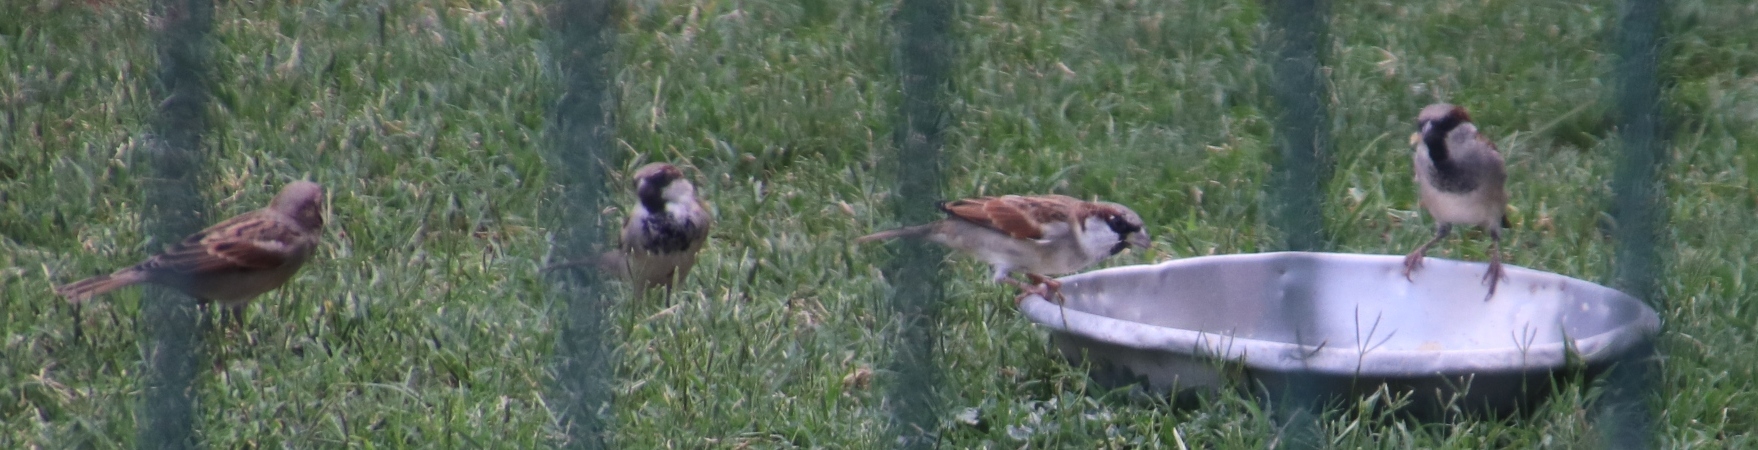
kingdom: Animalia
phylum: Chordata
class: Aves
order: Passeriformes
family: Passeridae
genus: Passer
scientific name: Passer domesticus
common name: House sparrow
